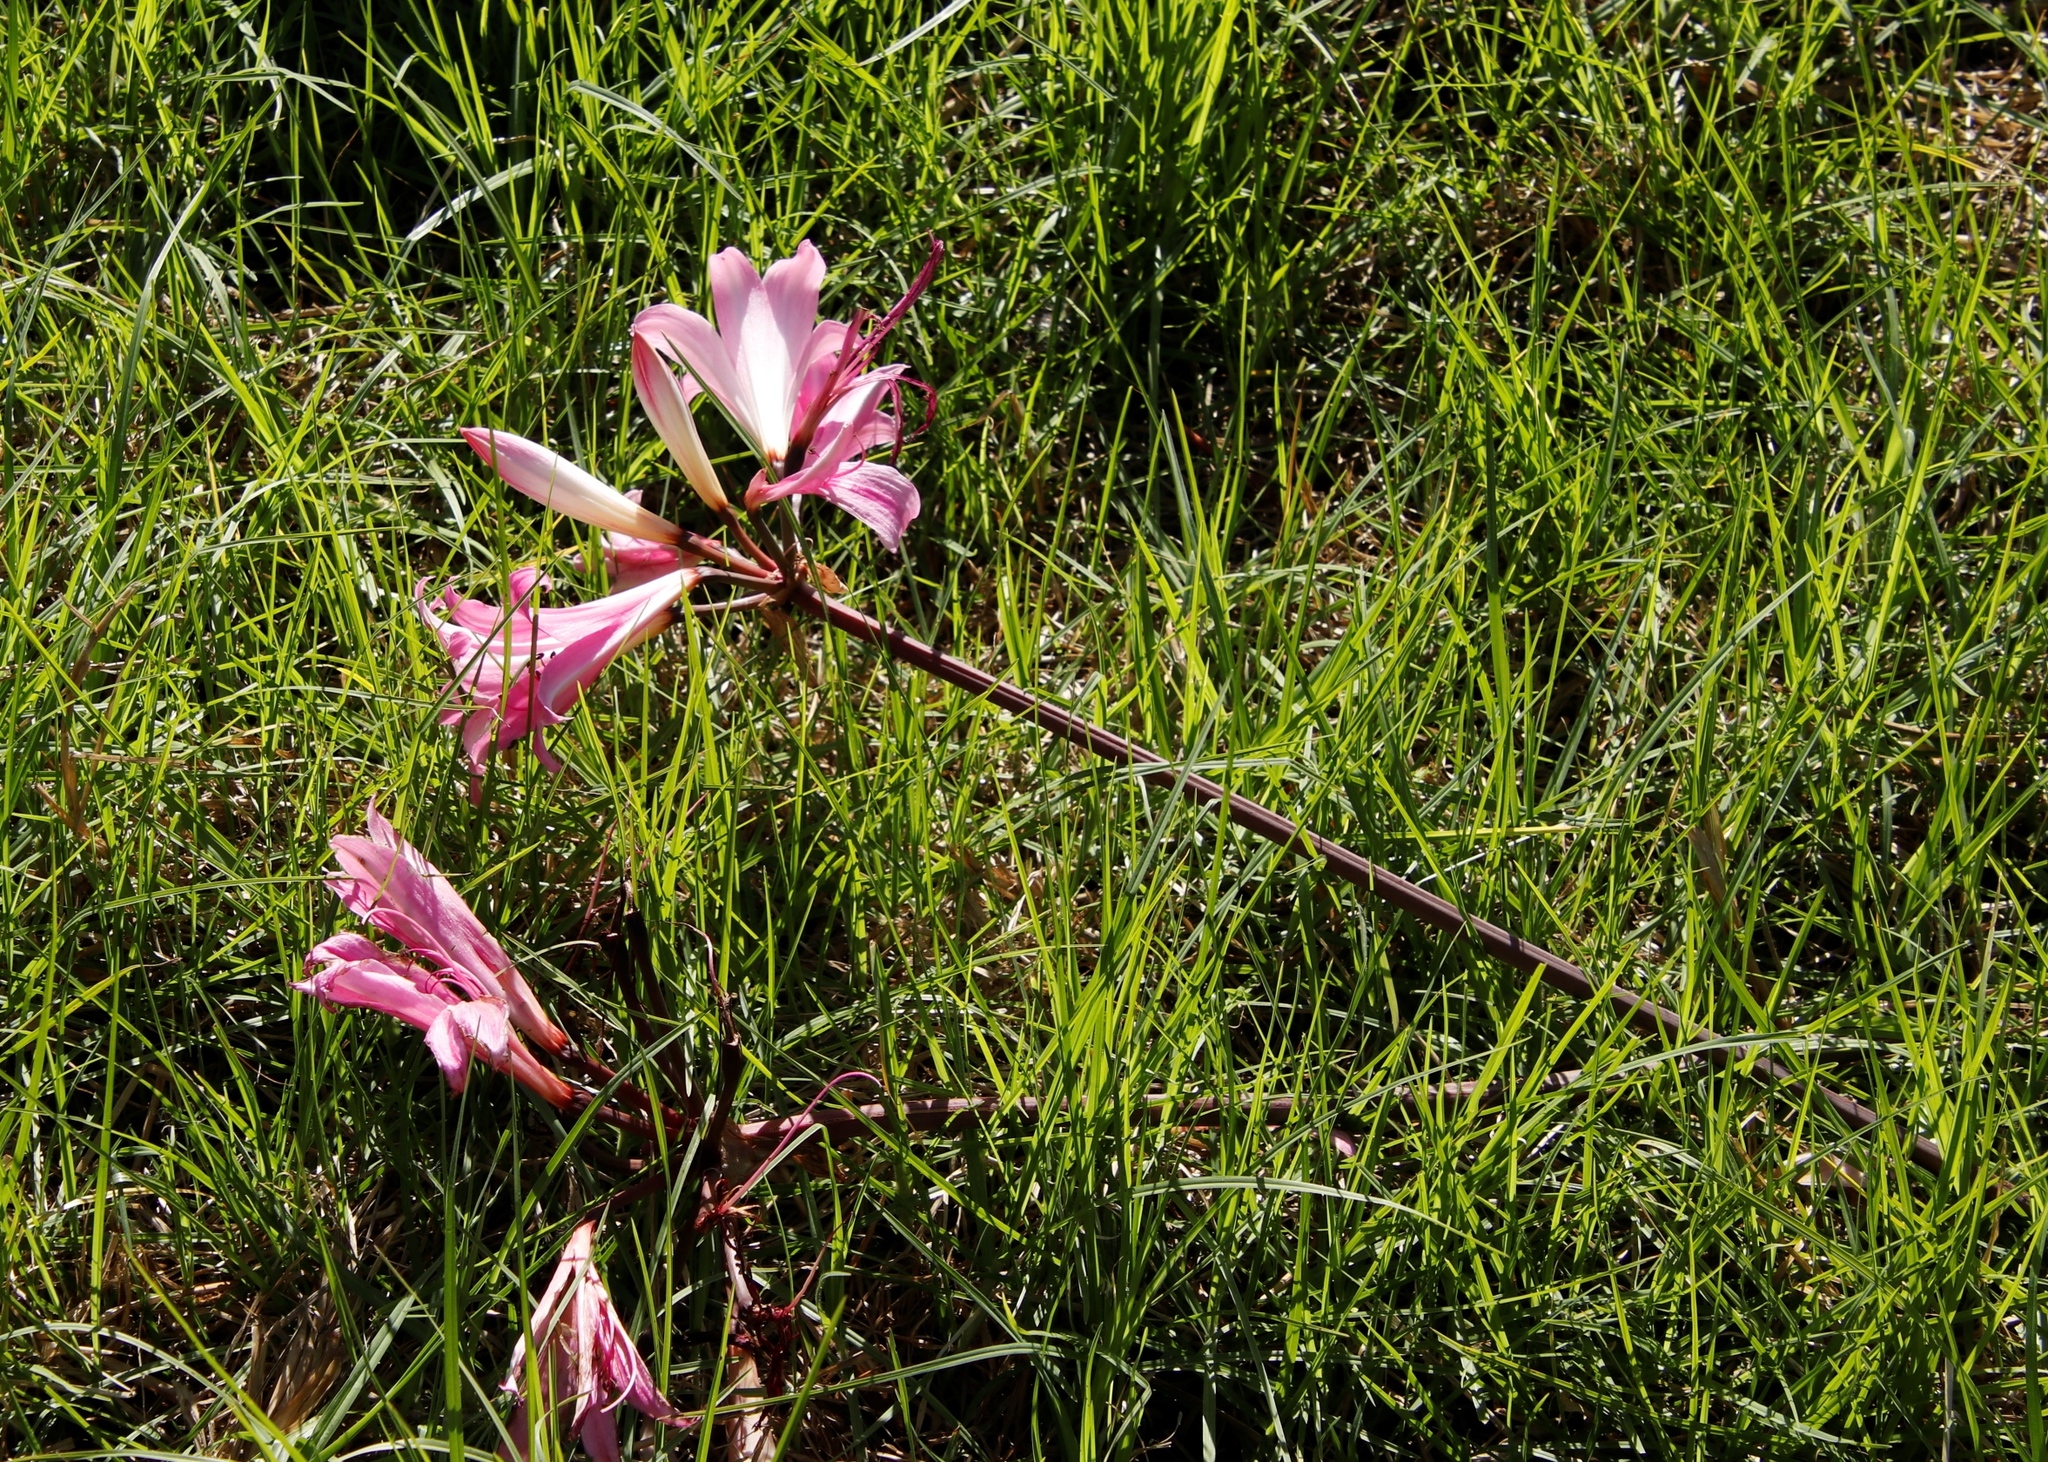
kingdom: Plantae
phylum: Tracheophyta
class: Liliopsida
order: Asparagales
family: Amaryllidaceae
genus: Amaryllis
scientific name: Amaryllis belladonna
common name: Jersey lily
